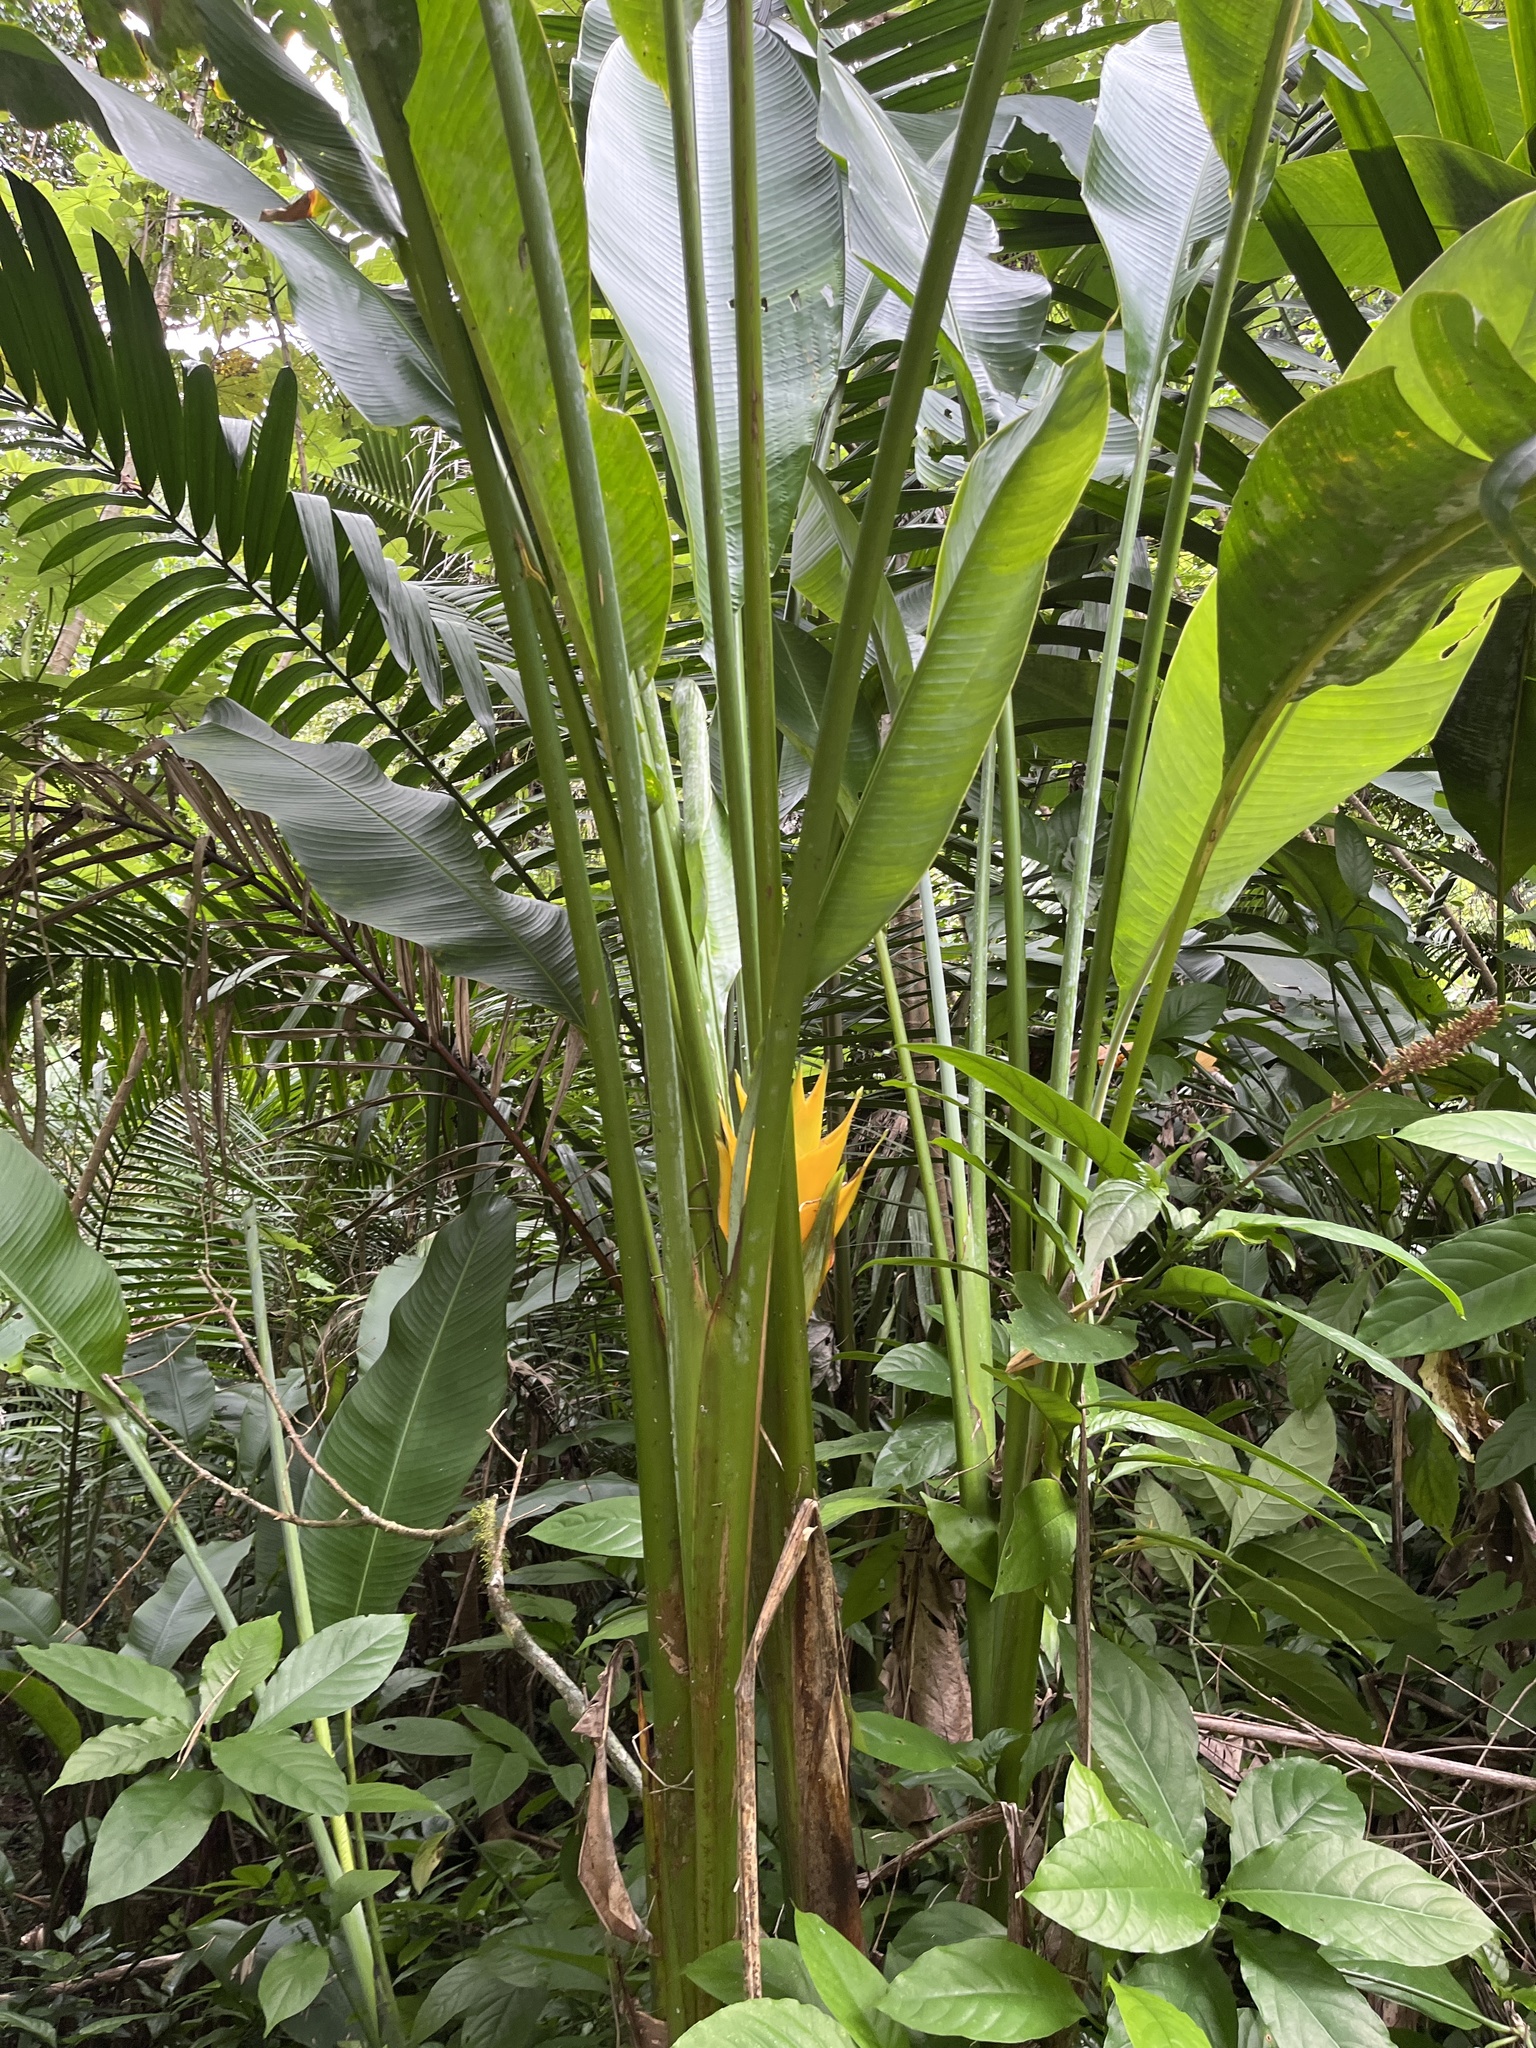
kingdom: Plantae
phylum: Tracheophyta
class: Liliopsida
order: Zingiberales
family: Heliconiaceae
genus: Heliconia
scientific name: Heliconia caribaea
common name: Wild plantain
